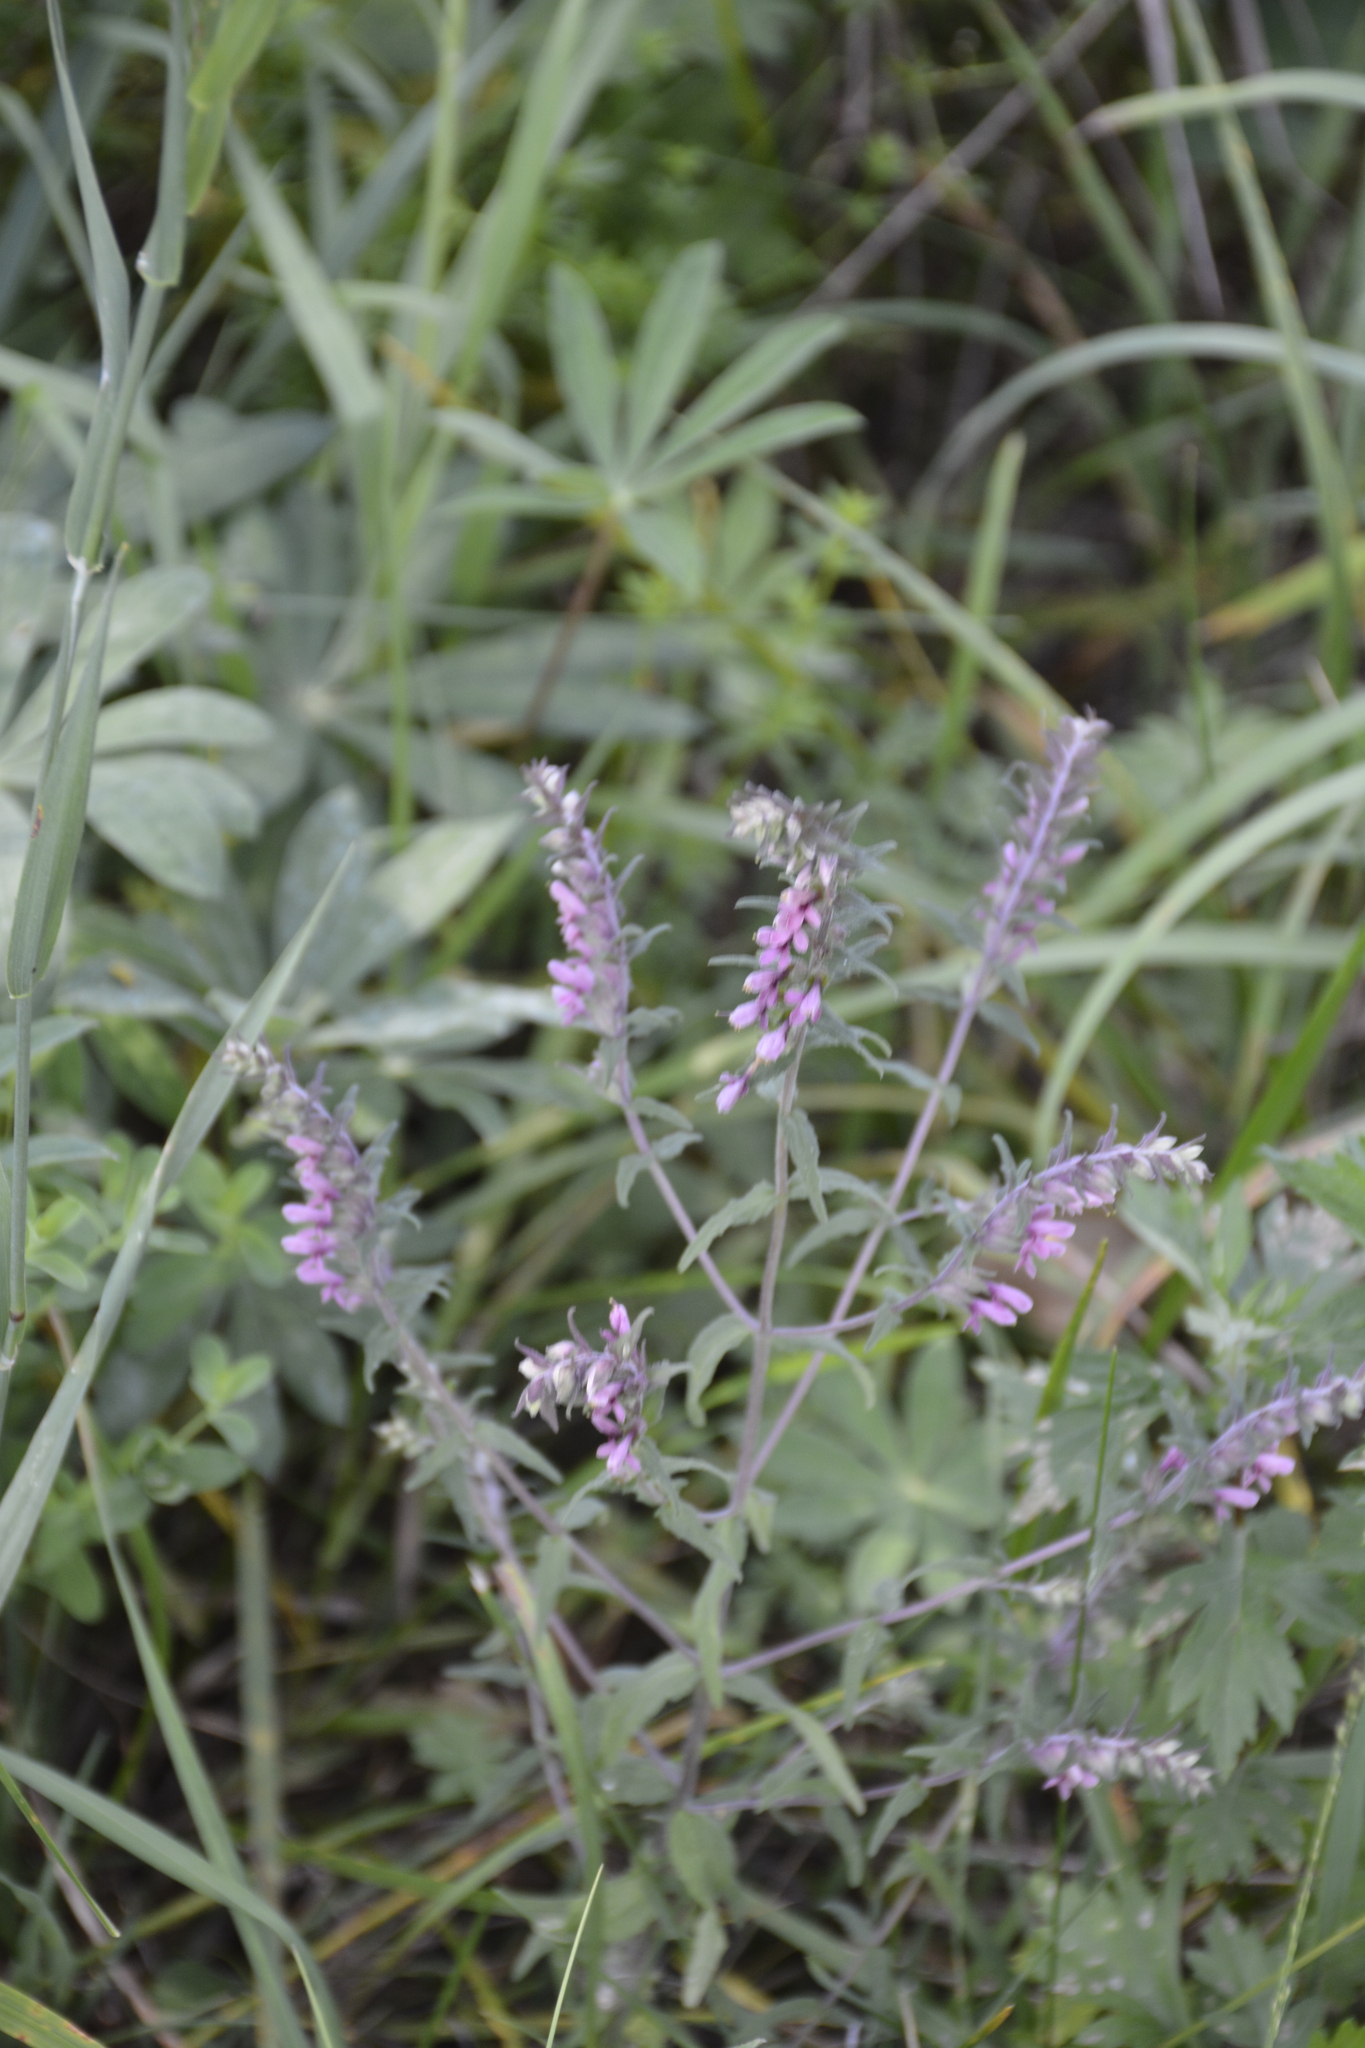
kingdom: Plantae
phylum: Tracheophyta
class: Magnoliopsida
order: Lamiales
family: Orobanchaceae
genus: Odontites
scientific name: Odontites vulgaris
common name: Broomrape
